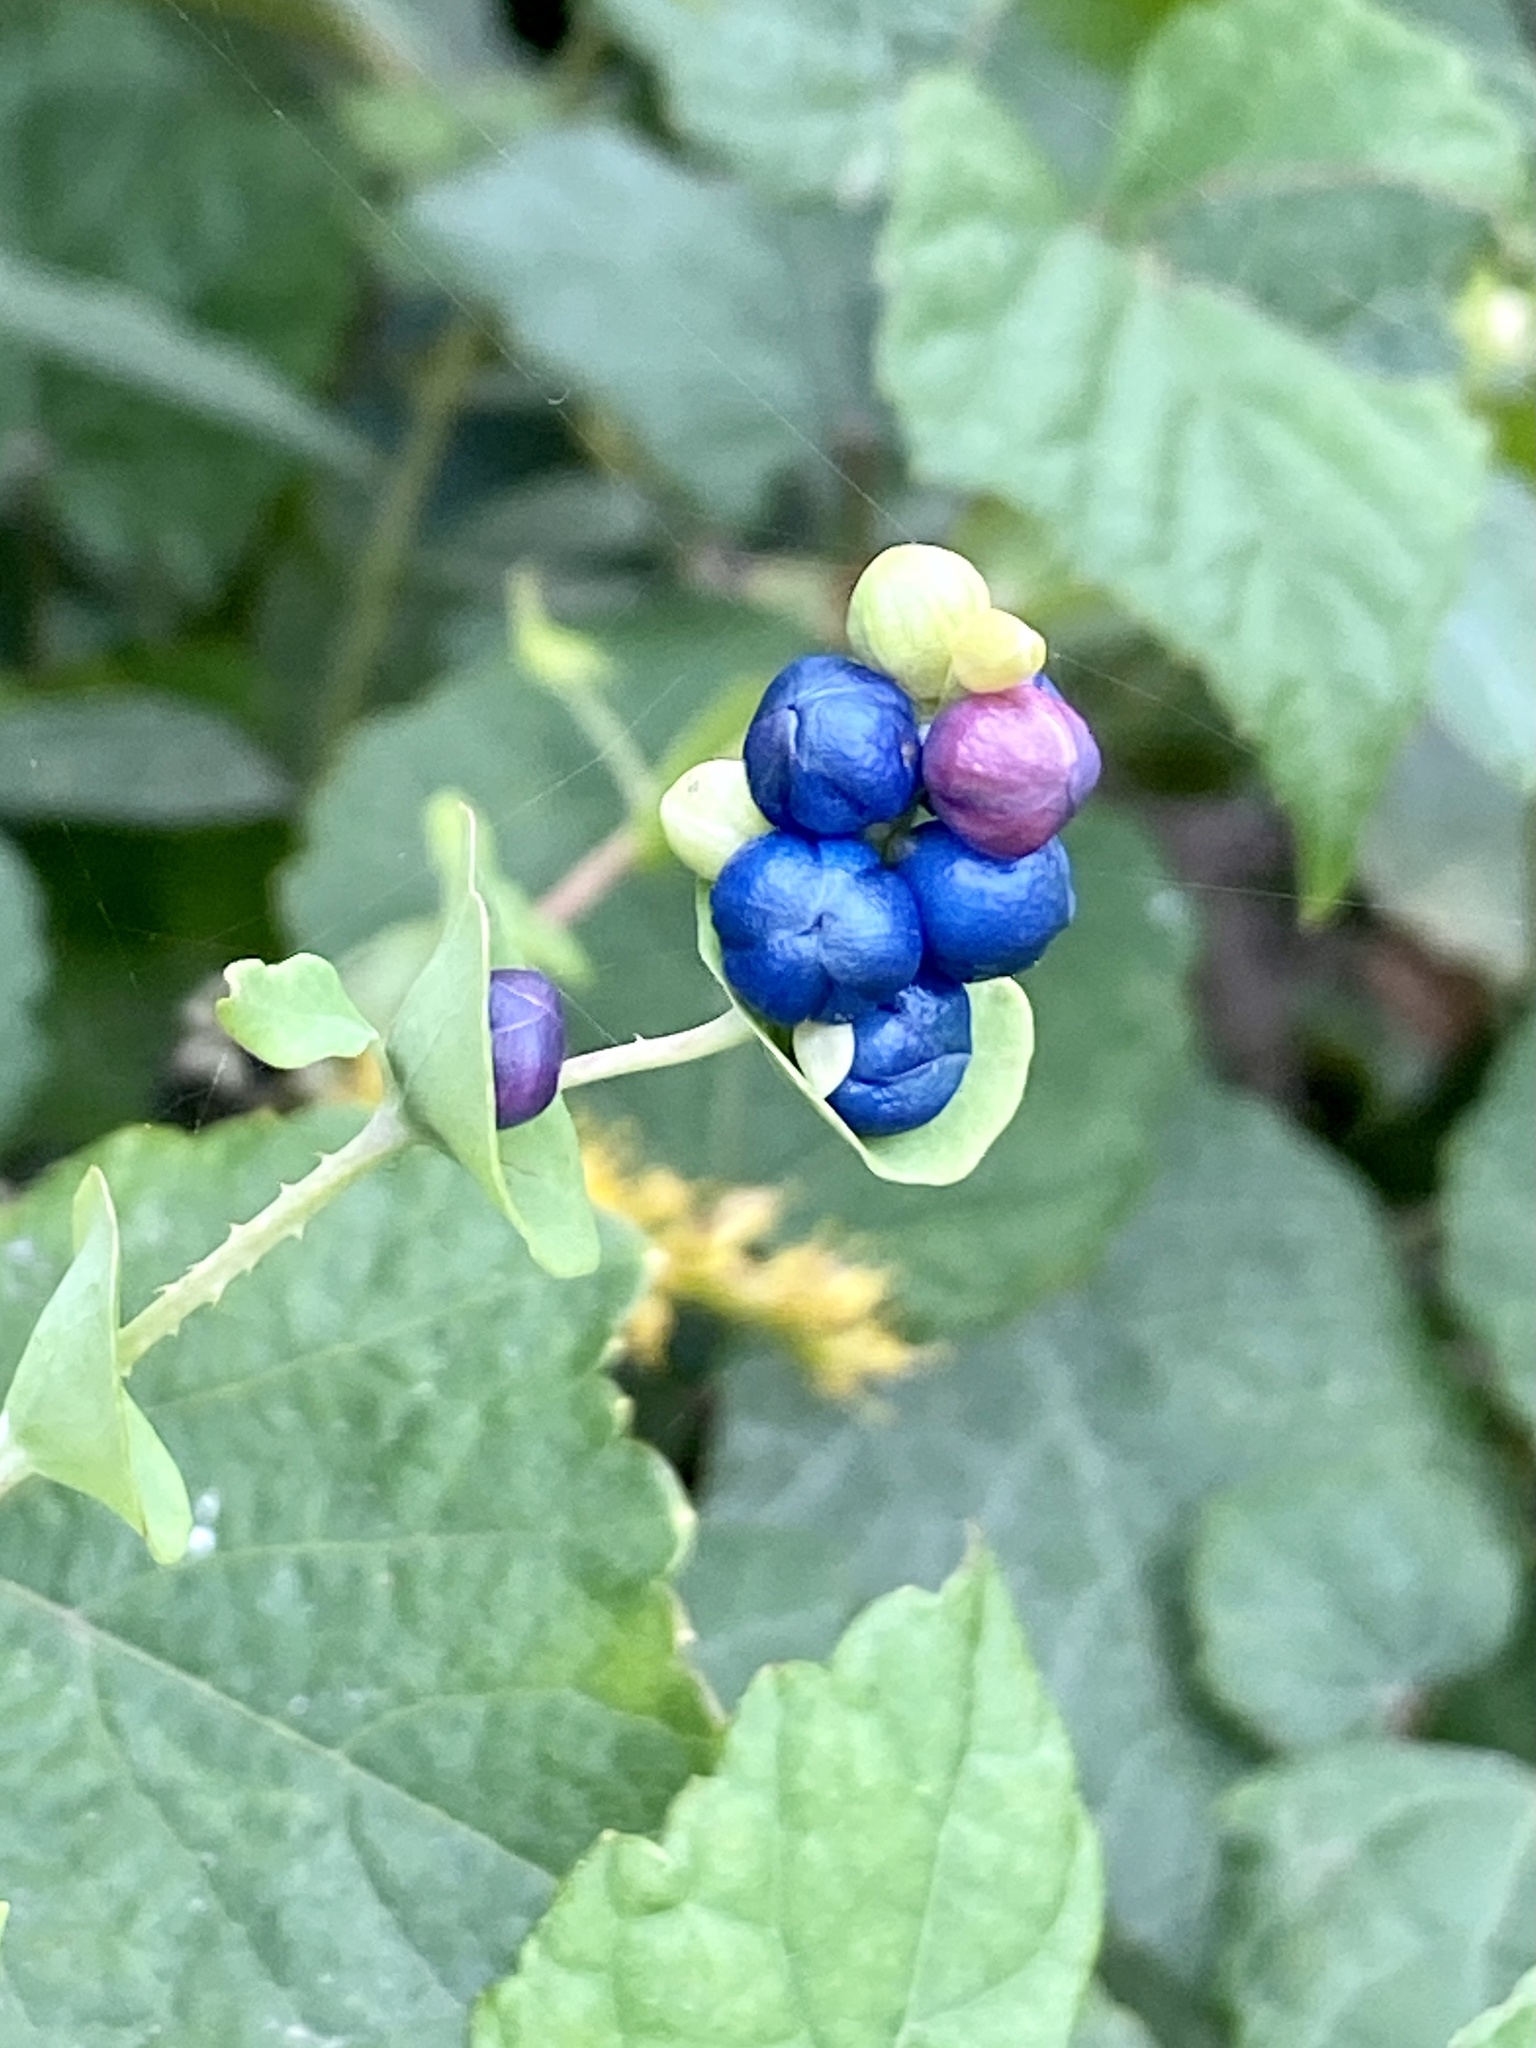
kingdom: Plantae
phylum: Tracheophyta
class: Magnoliopsida
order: Caryophyllales
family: Polygonaceae
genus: Persicaria
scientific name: Persicaria perfoliata
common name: Asiatic tearthumb
